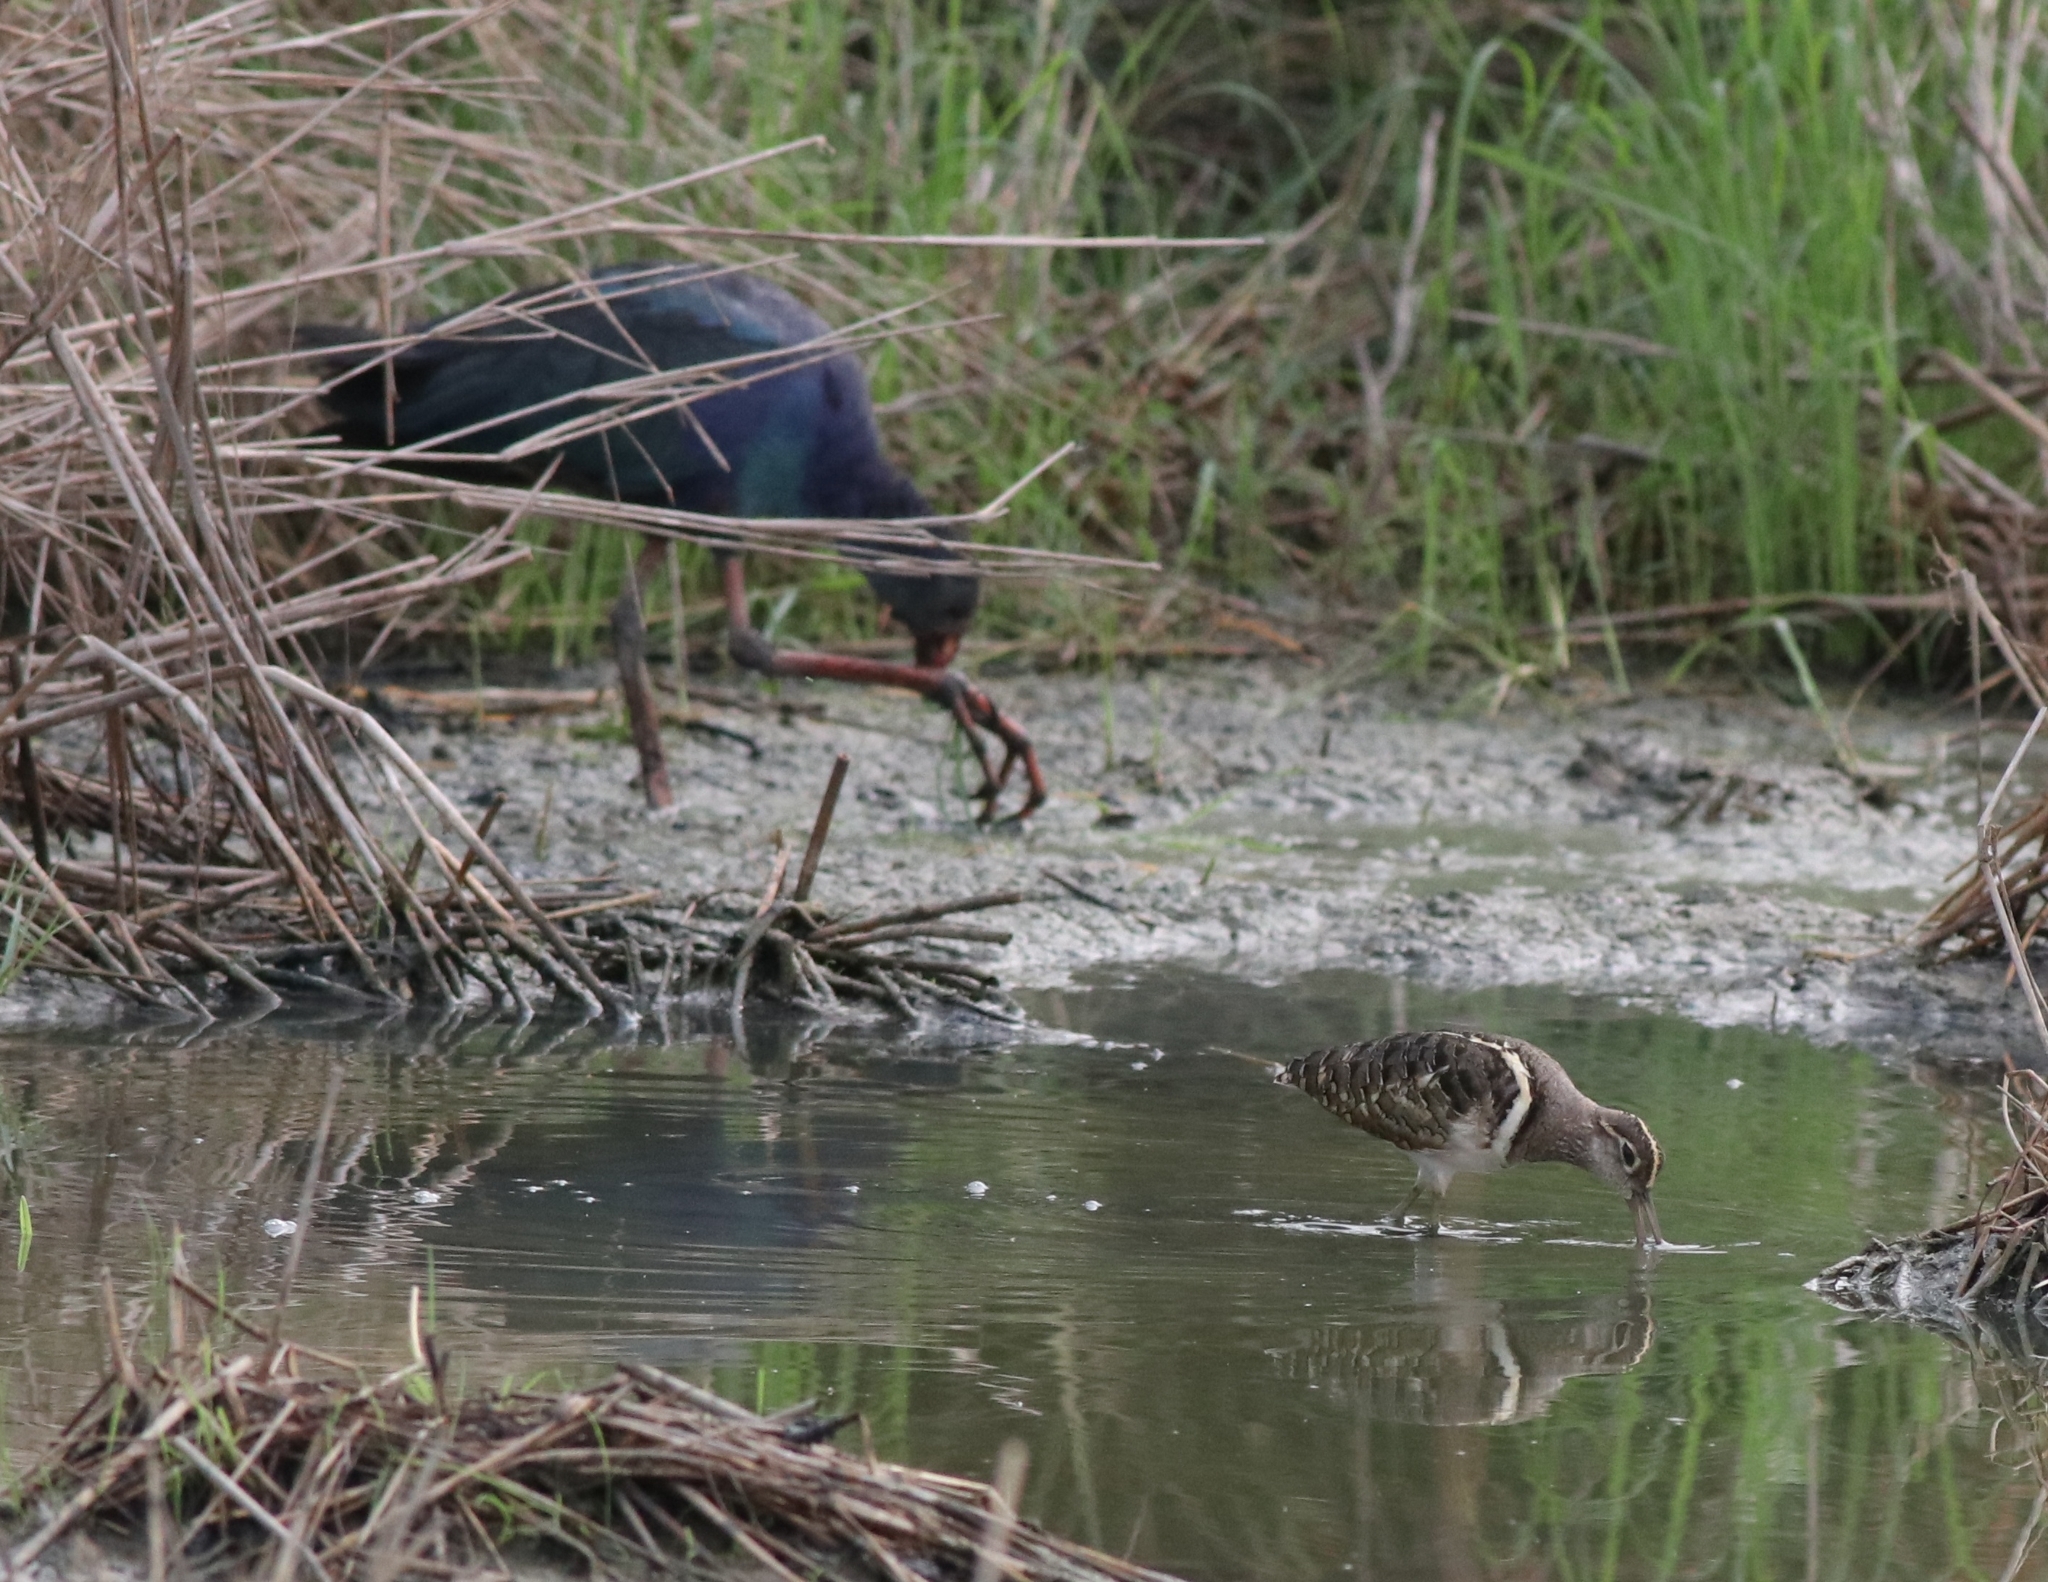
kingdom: Animalia
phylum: Chordata
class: Aves
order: Charadriiformes
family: Rostratulidae
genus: Rostratula
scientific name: Rostratula benghalensis
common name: Greater painted-snipe
